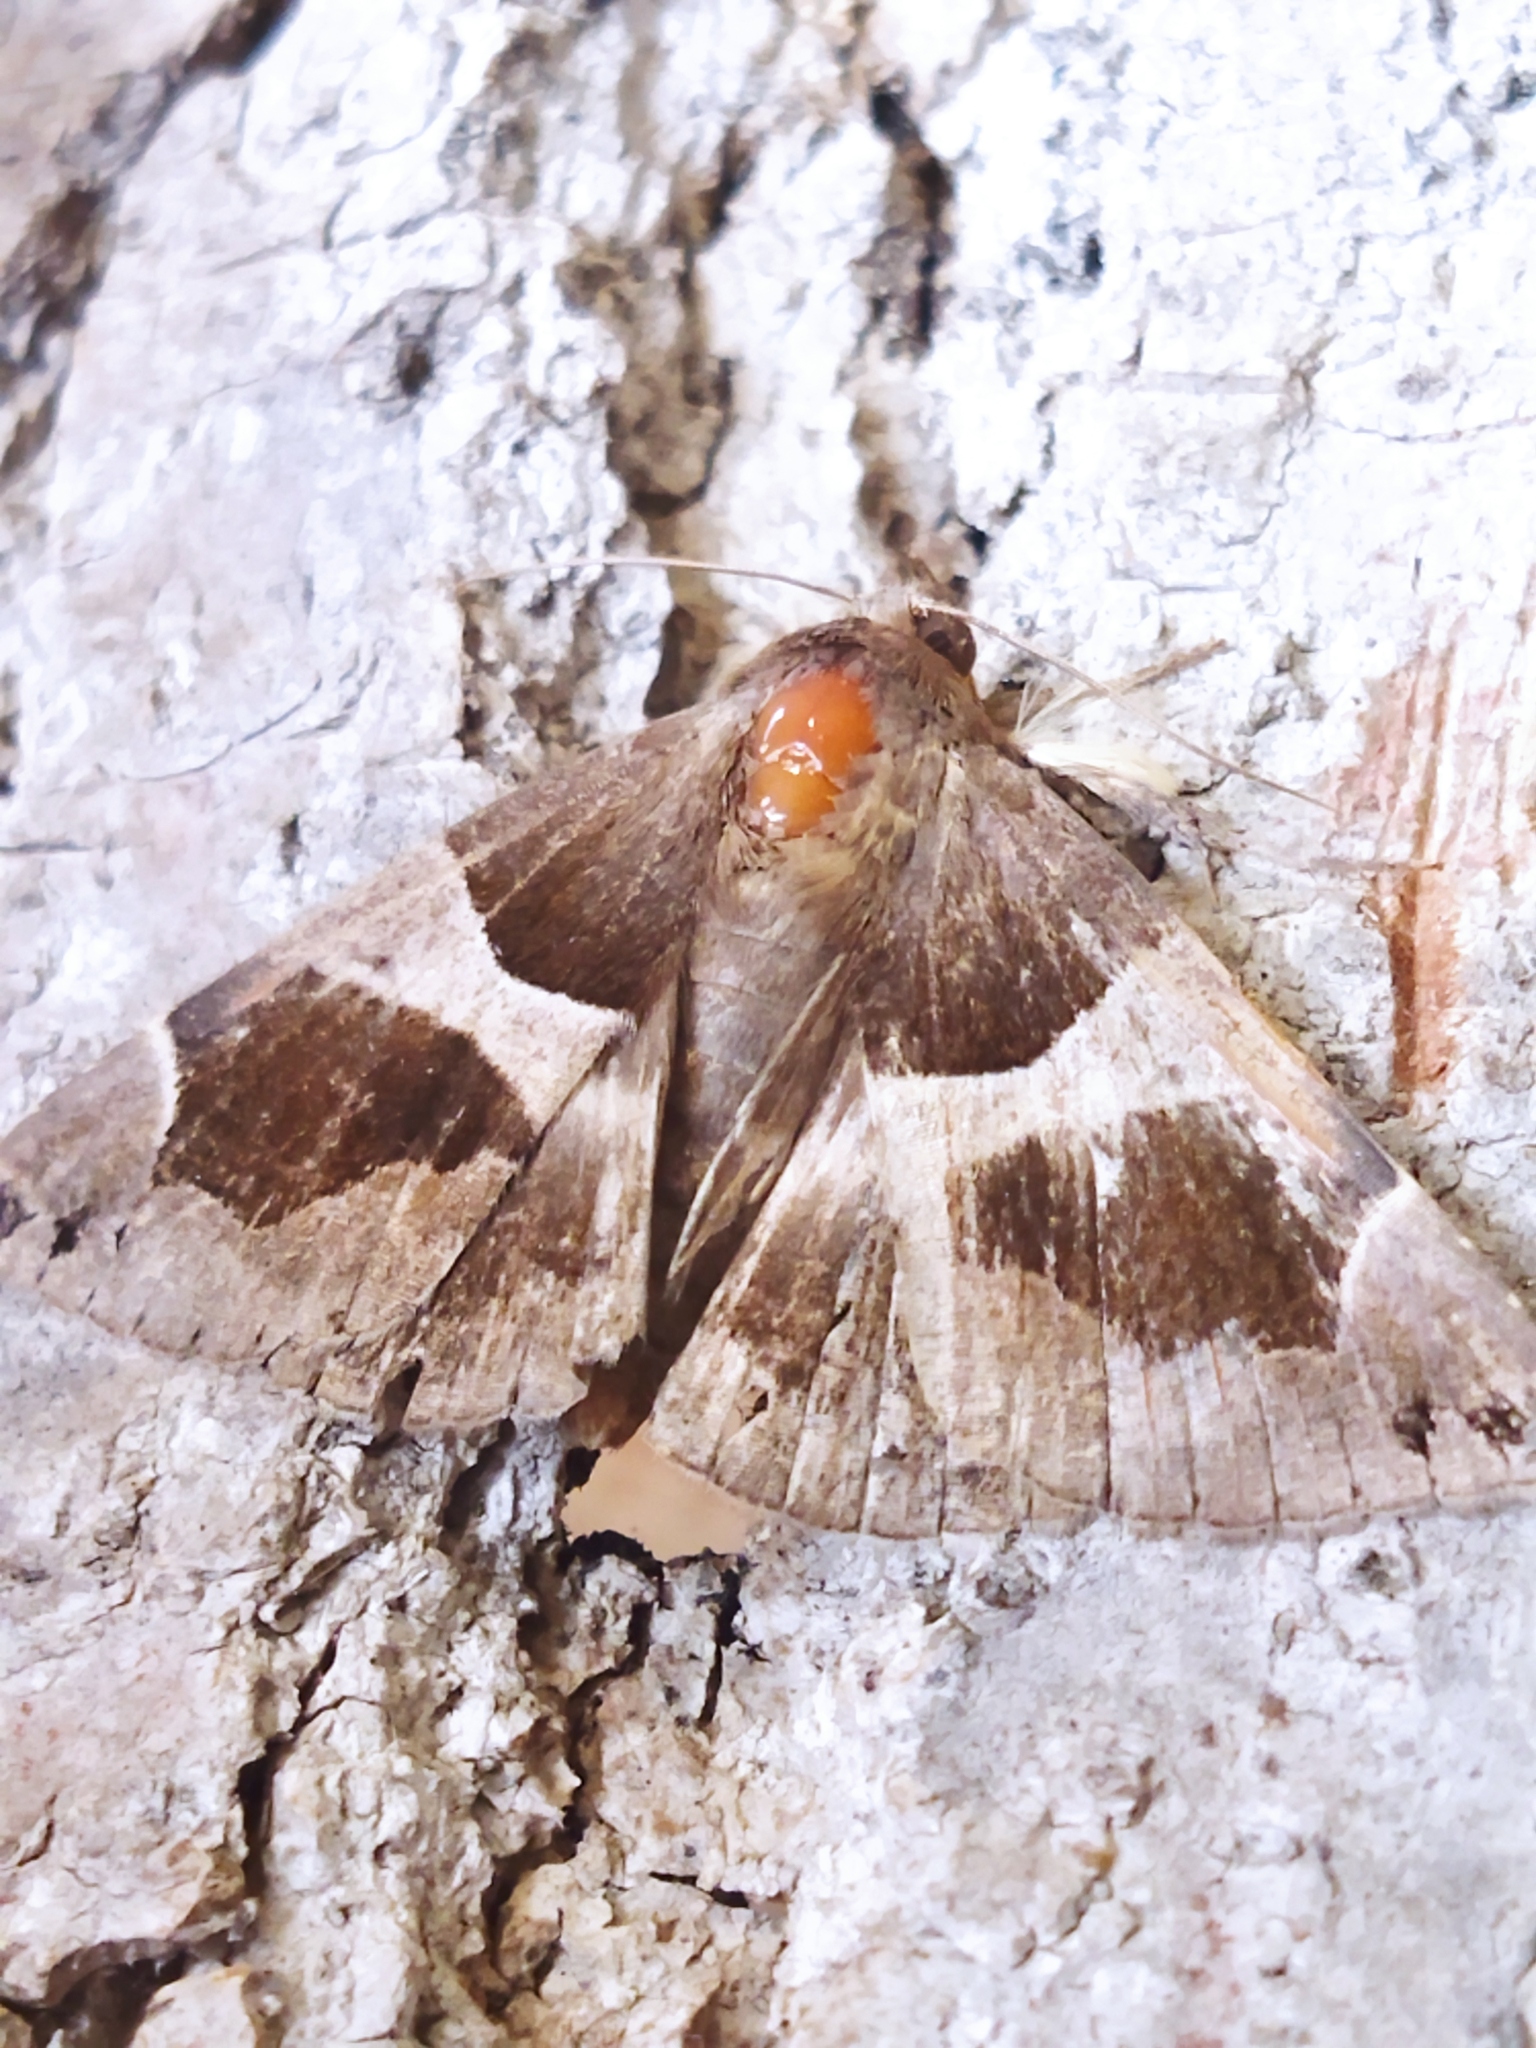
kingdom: Animalia
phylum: Arthropoda
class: Insecta
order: Lepidoptera
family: Erebidae
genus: Dysgonia
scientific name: Dysgonia algira
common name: Passenger
